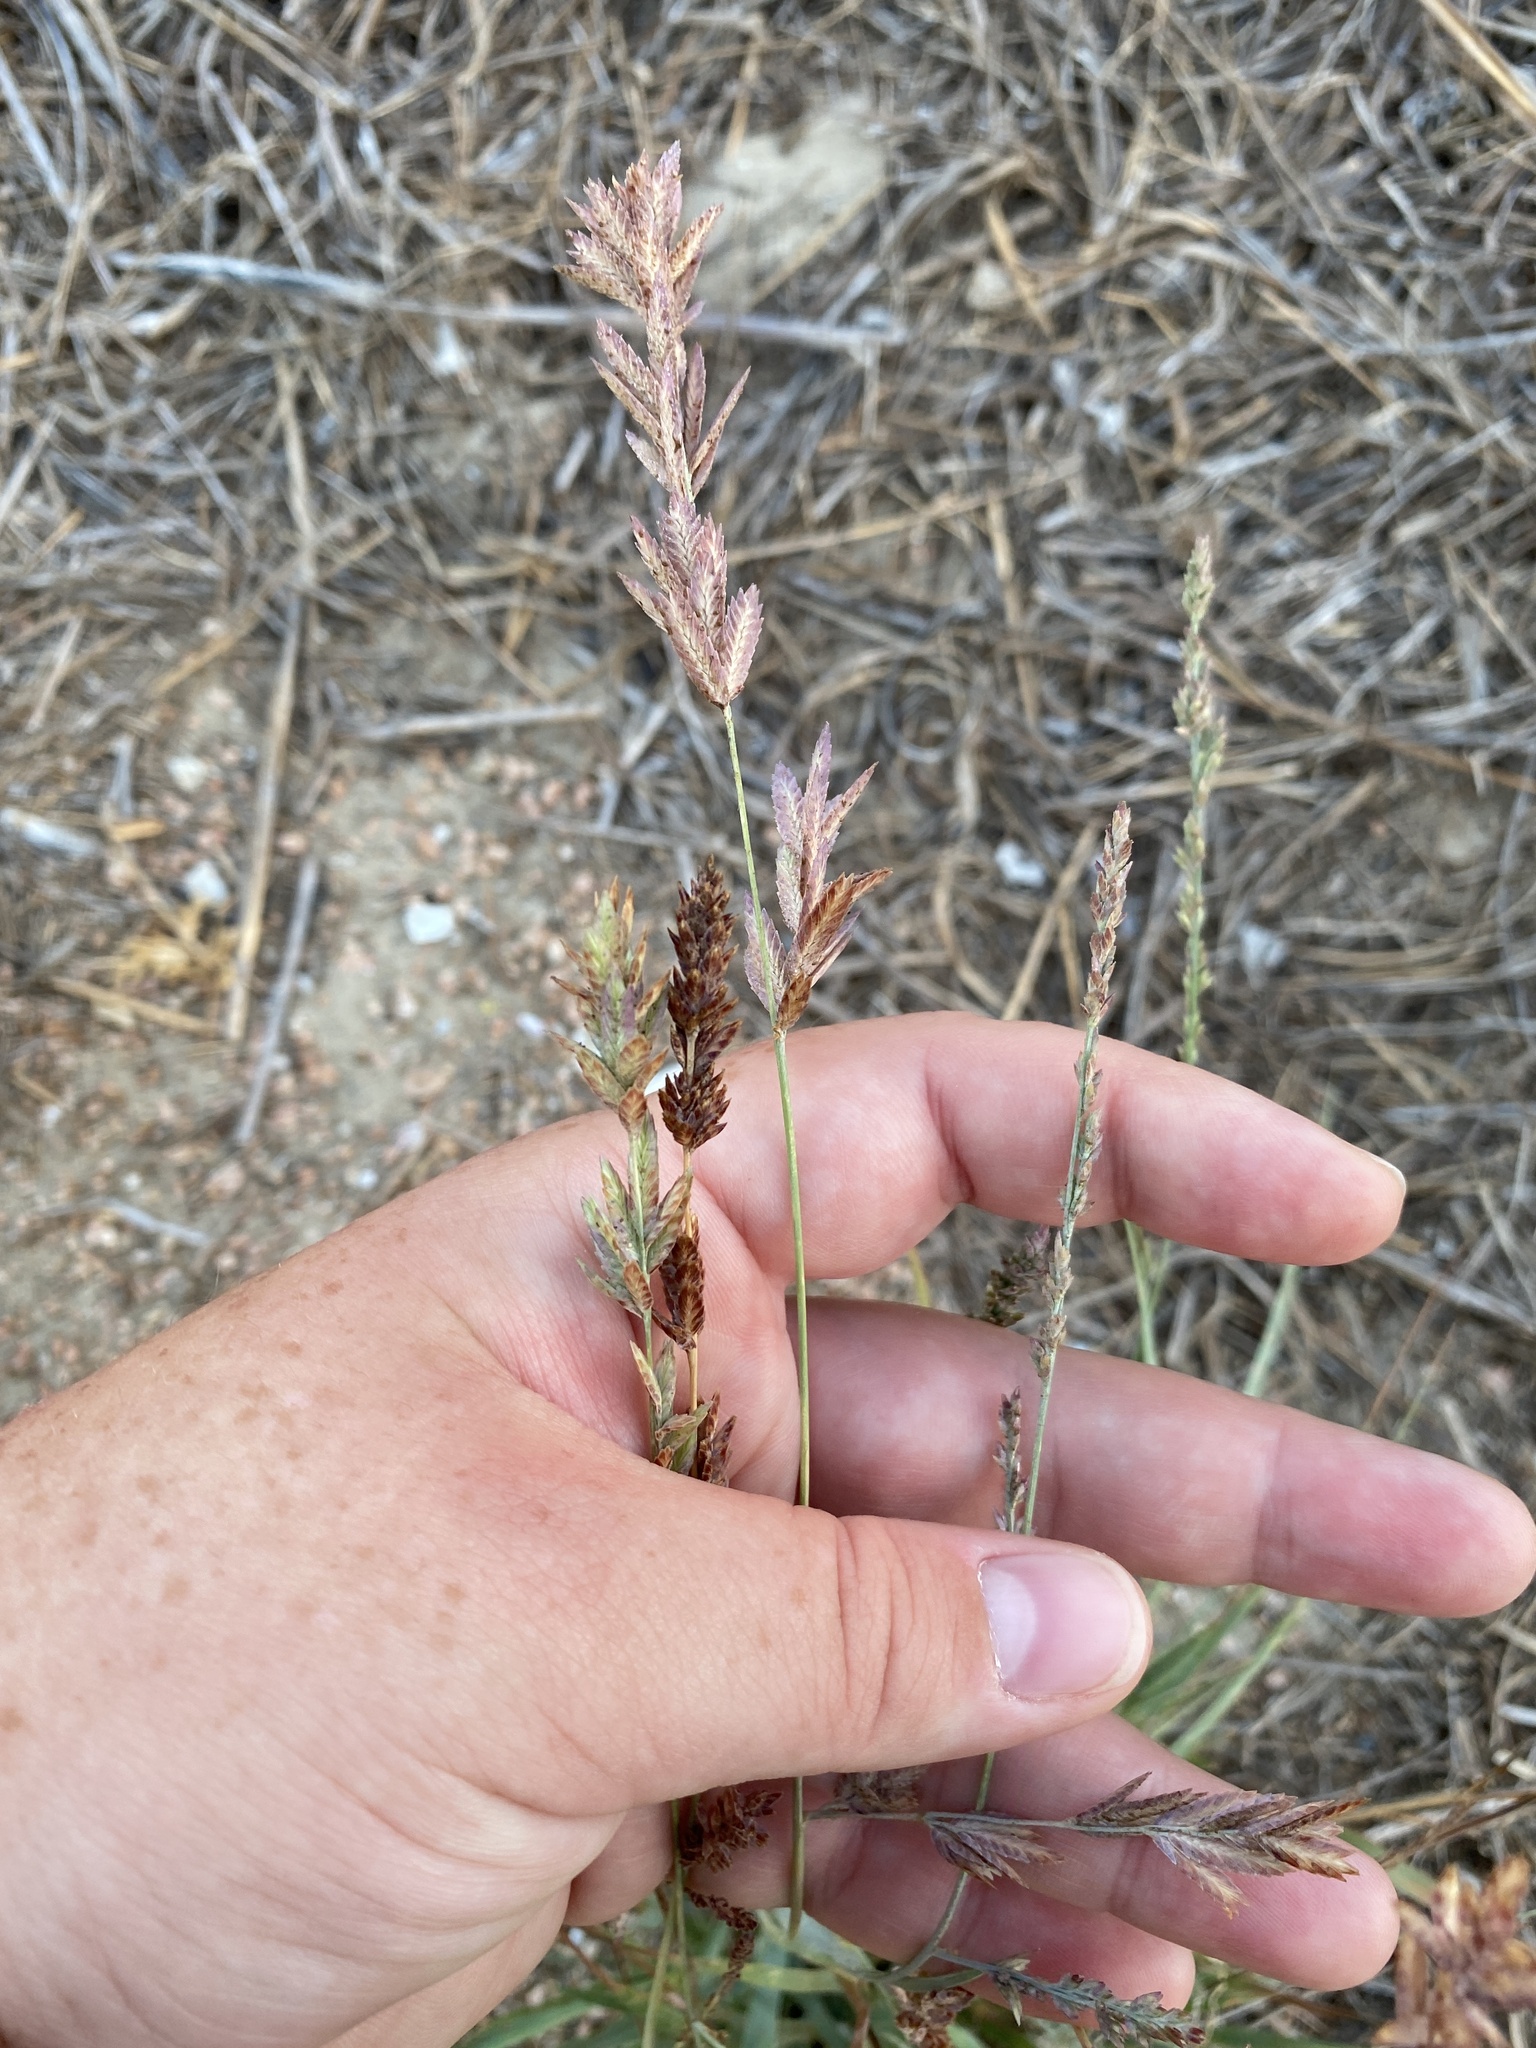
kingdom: Plantae
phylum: Tracheophyta
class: Liliopsida
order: Poales
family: Poaceae
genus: Eragrostis
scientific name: Eragrostis secundiflora
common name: Red love grass
